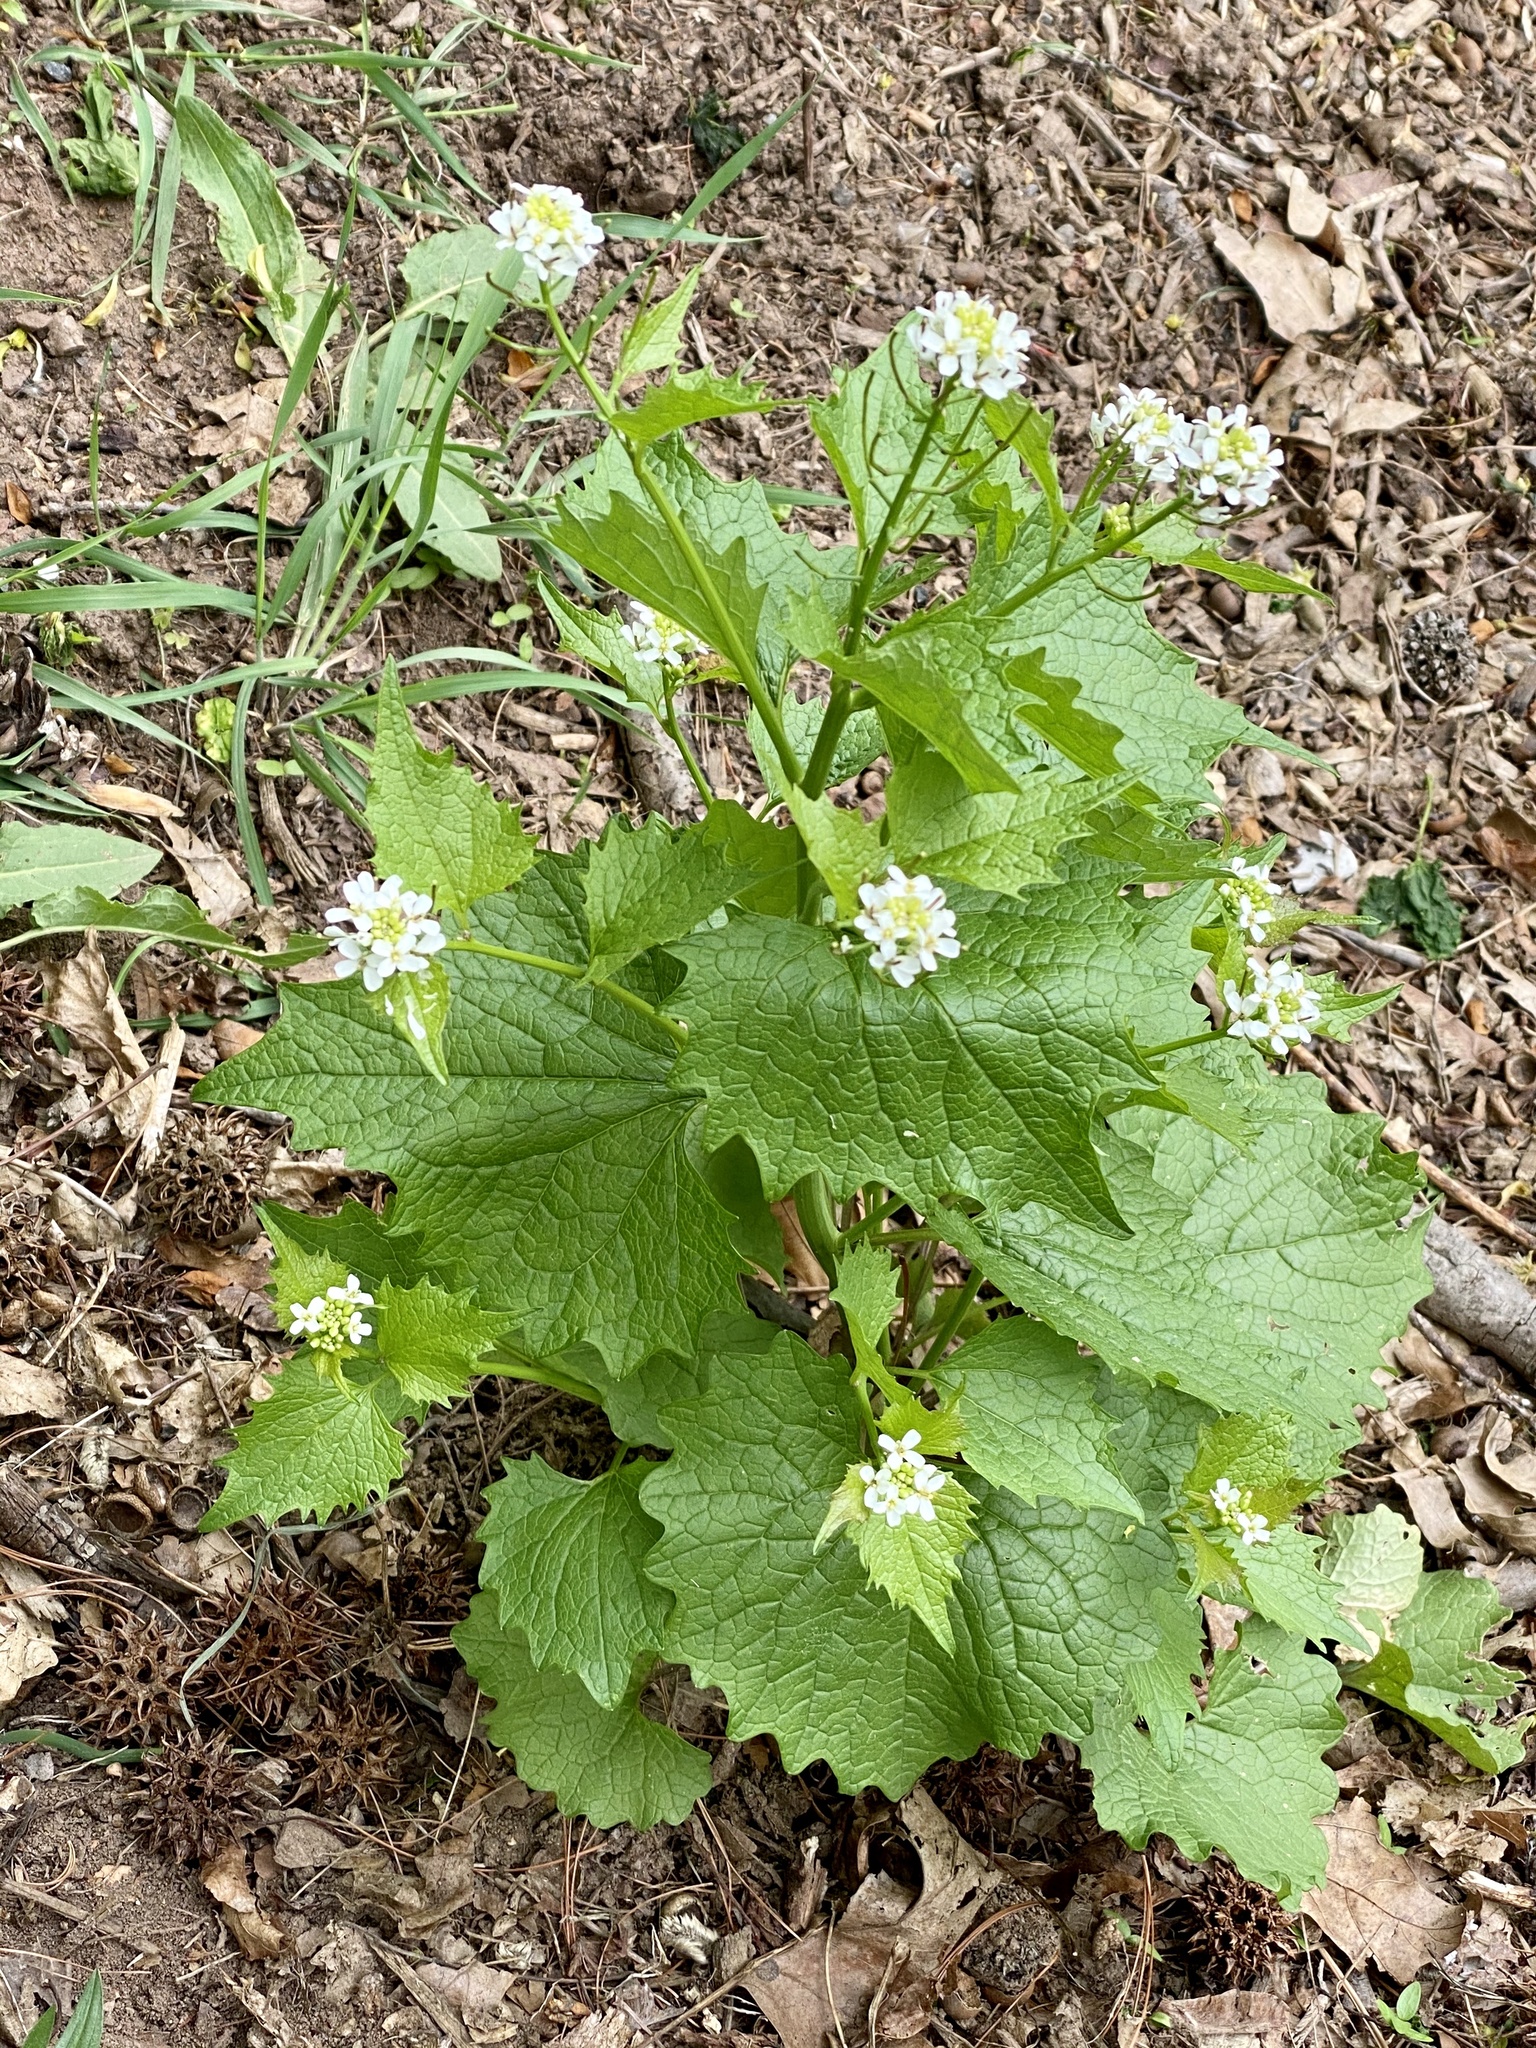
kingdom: Plantae
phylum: Tracheophyta
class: Magnoliopsida
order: Brassicales
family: Brassicaceae
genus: Alliaria
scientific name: Alliaria petiolata
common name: Garlic mustard
